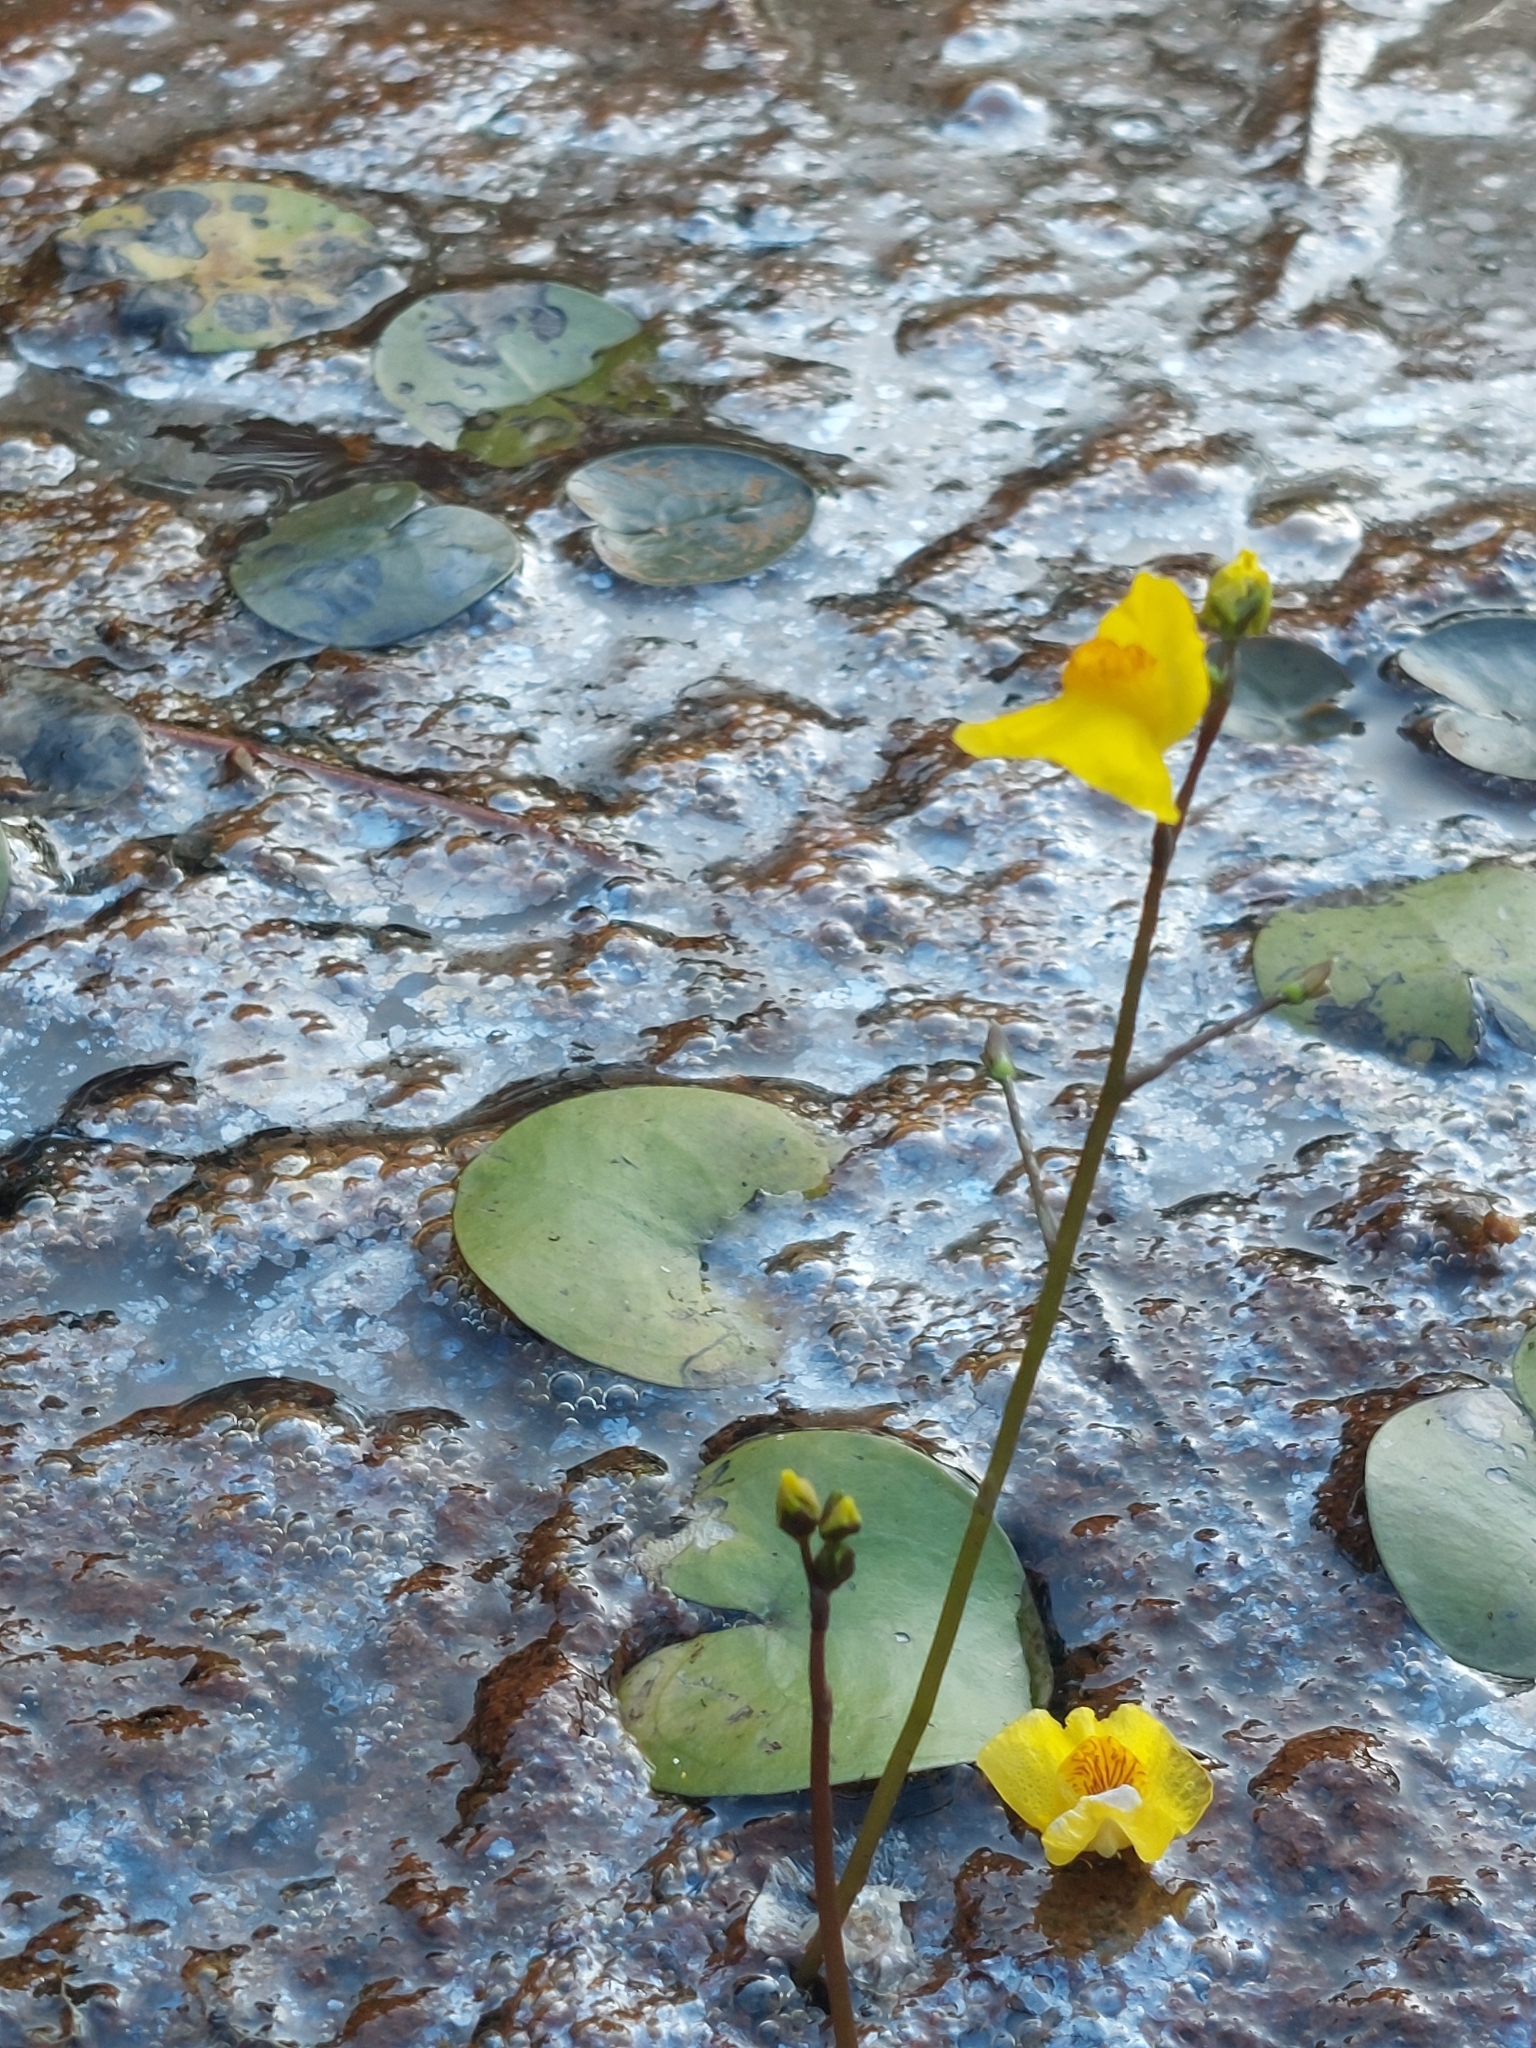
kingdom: Plantae
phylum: Tracheophyta
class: Magnoliopsida
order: Lamiales
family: Lentibulariaceae
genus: Utricularia
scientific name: Utricularia australis
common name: Bladderwort
